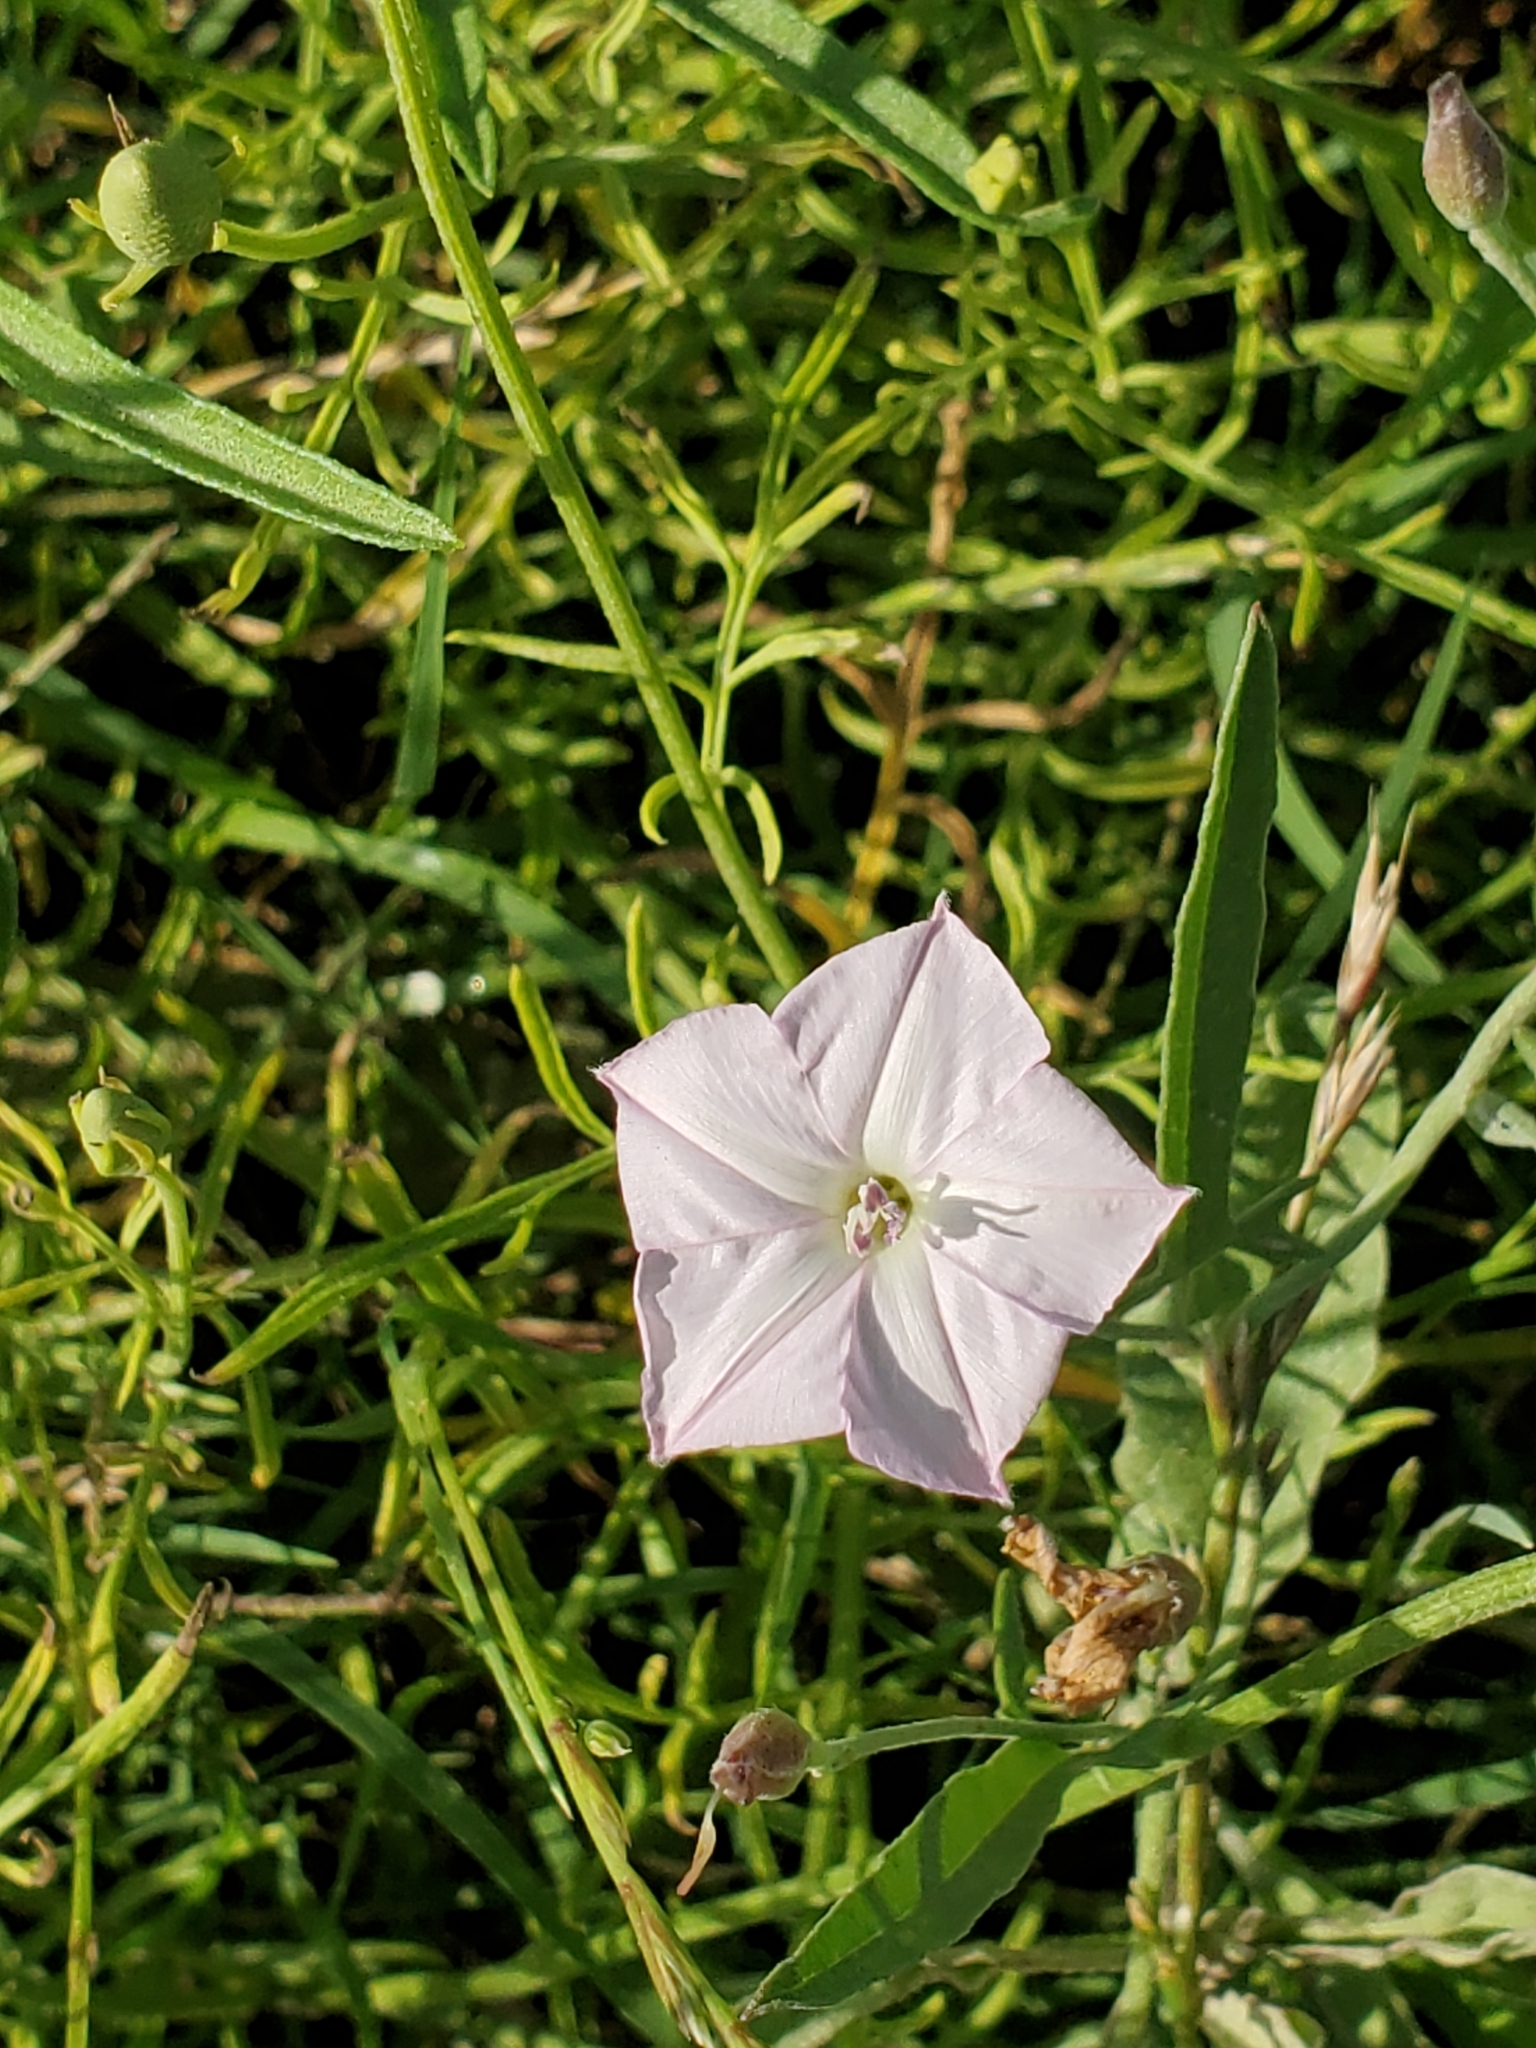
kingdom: Plantae
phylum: Tracheophyta
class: Magnoliopsida
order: Solanales
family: Convolvulaceae
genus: Convolvulus
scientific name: Convolvulus equitans
